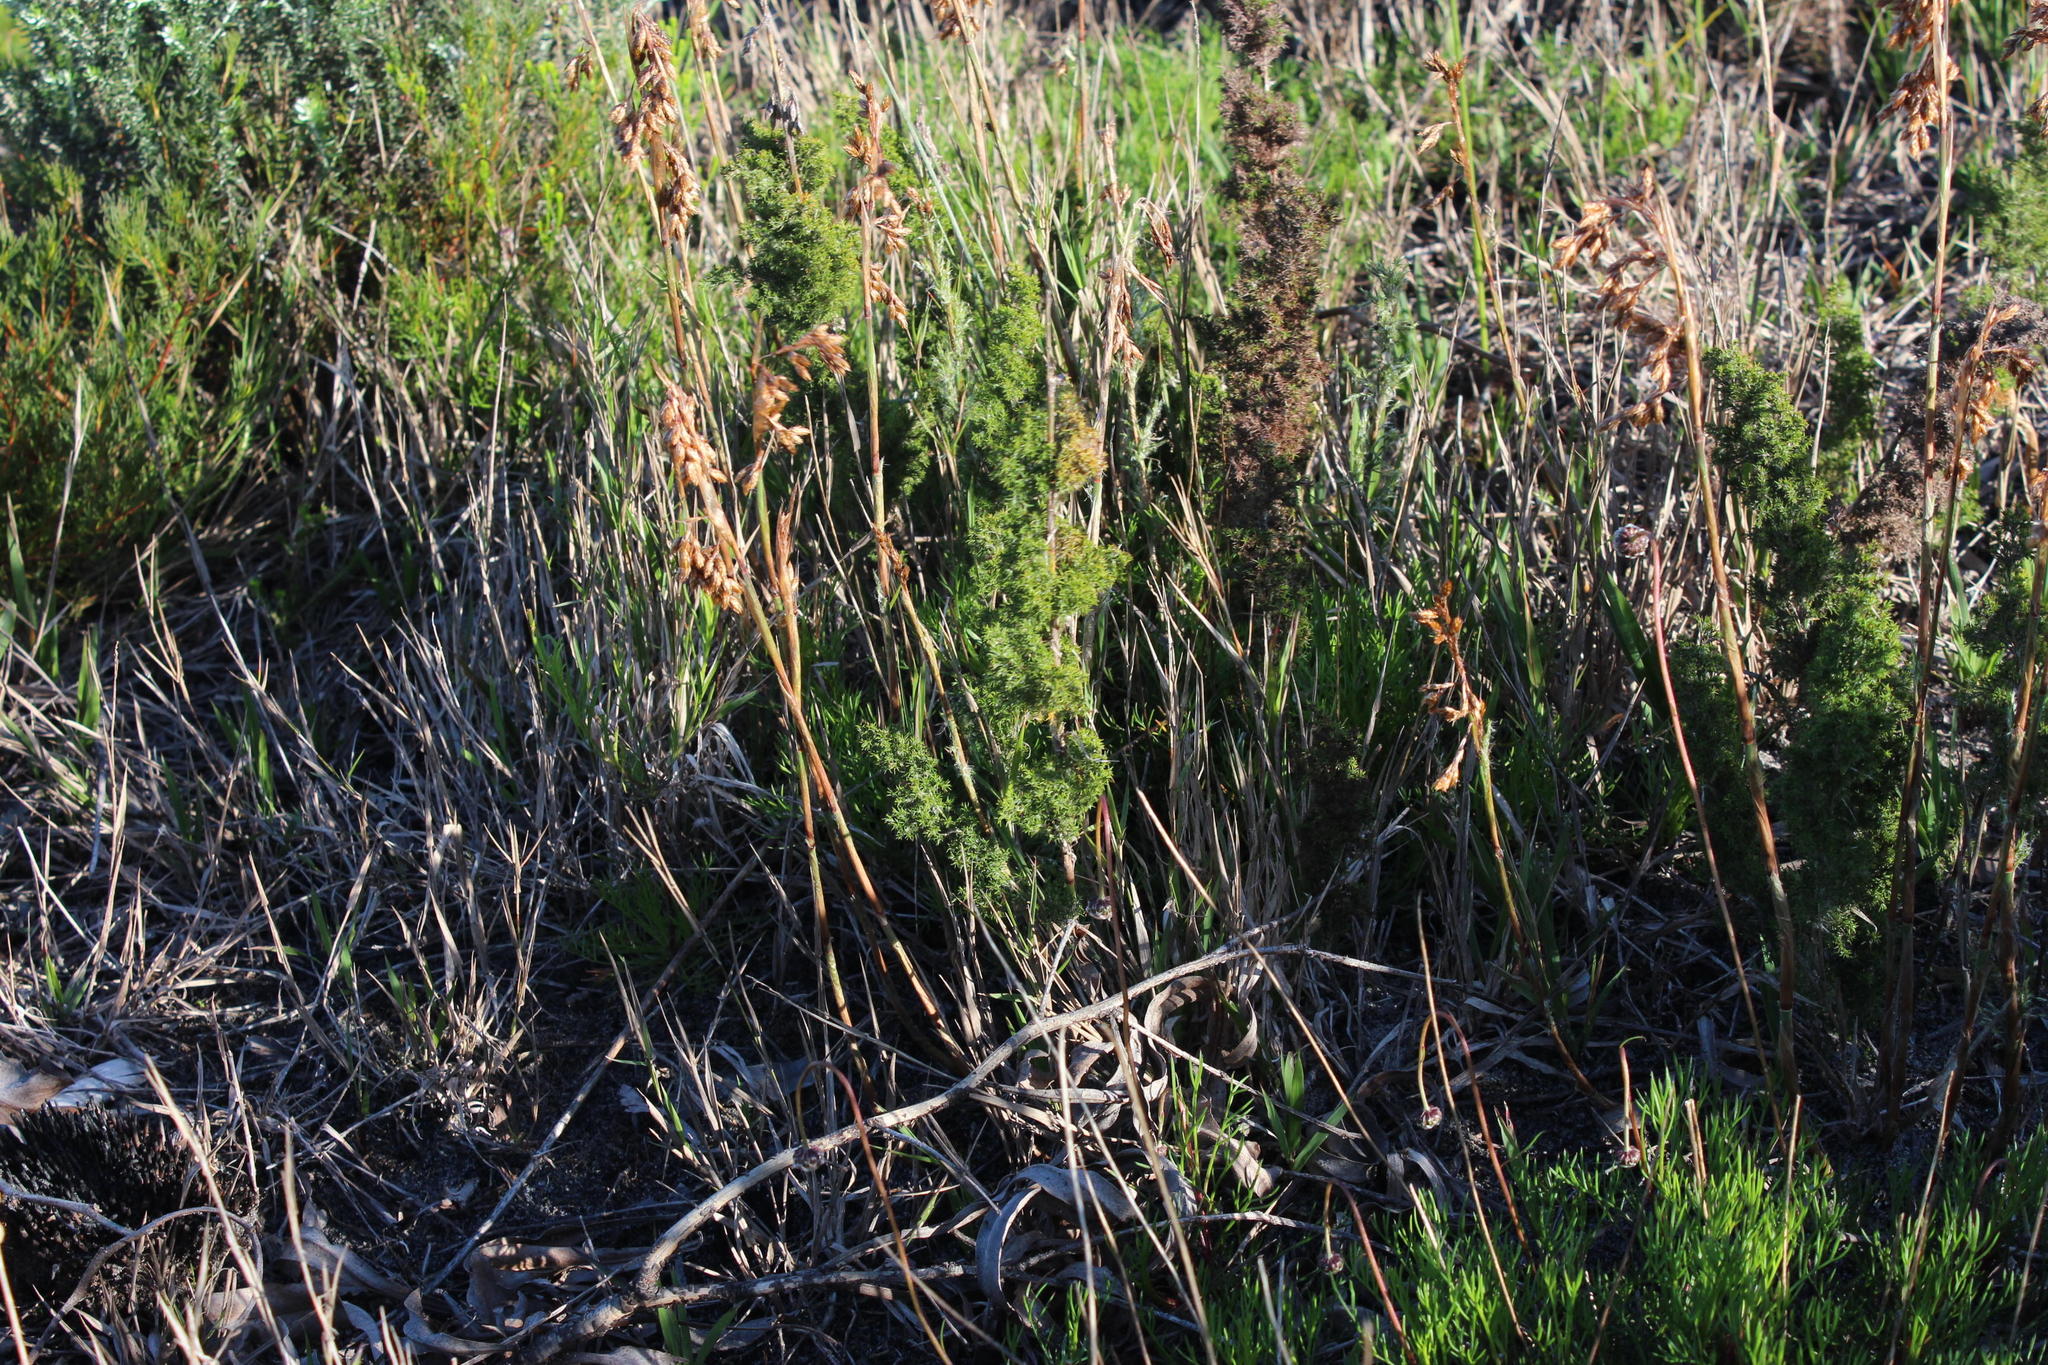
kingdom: Plantae
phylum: Tracheophyta
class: Liliopsida
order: Poales
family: Restionaceae
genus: Thamnochortus
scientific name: Thamnochortus fruticosus
